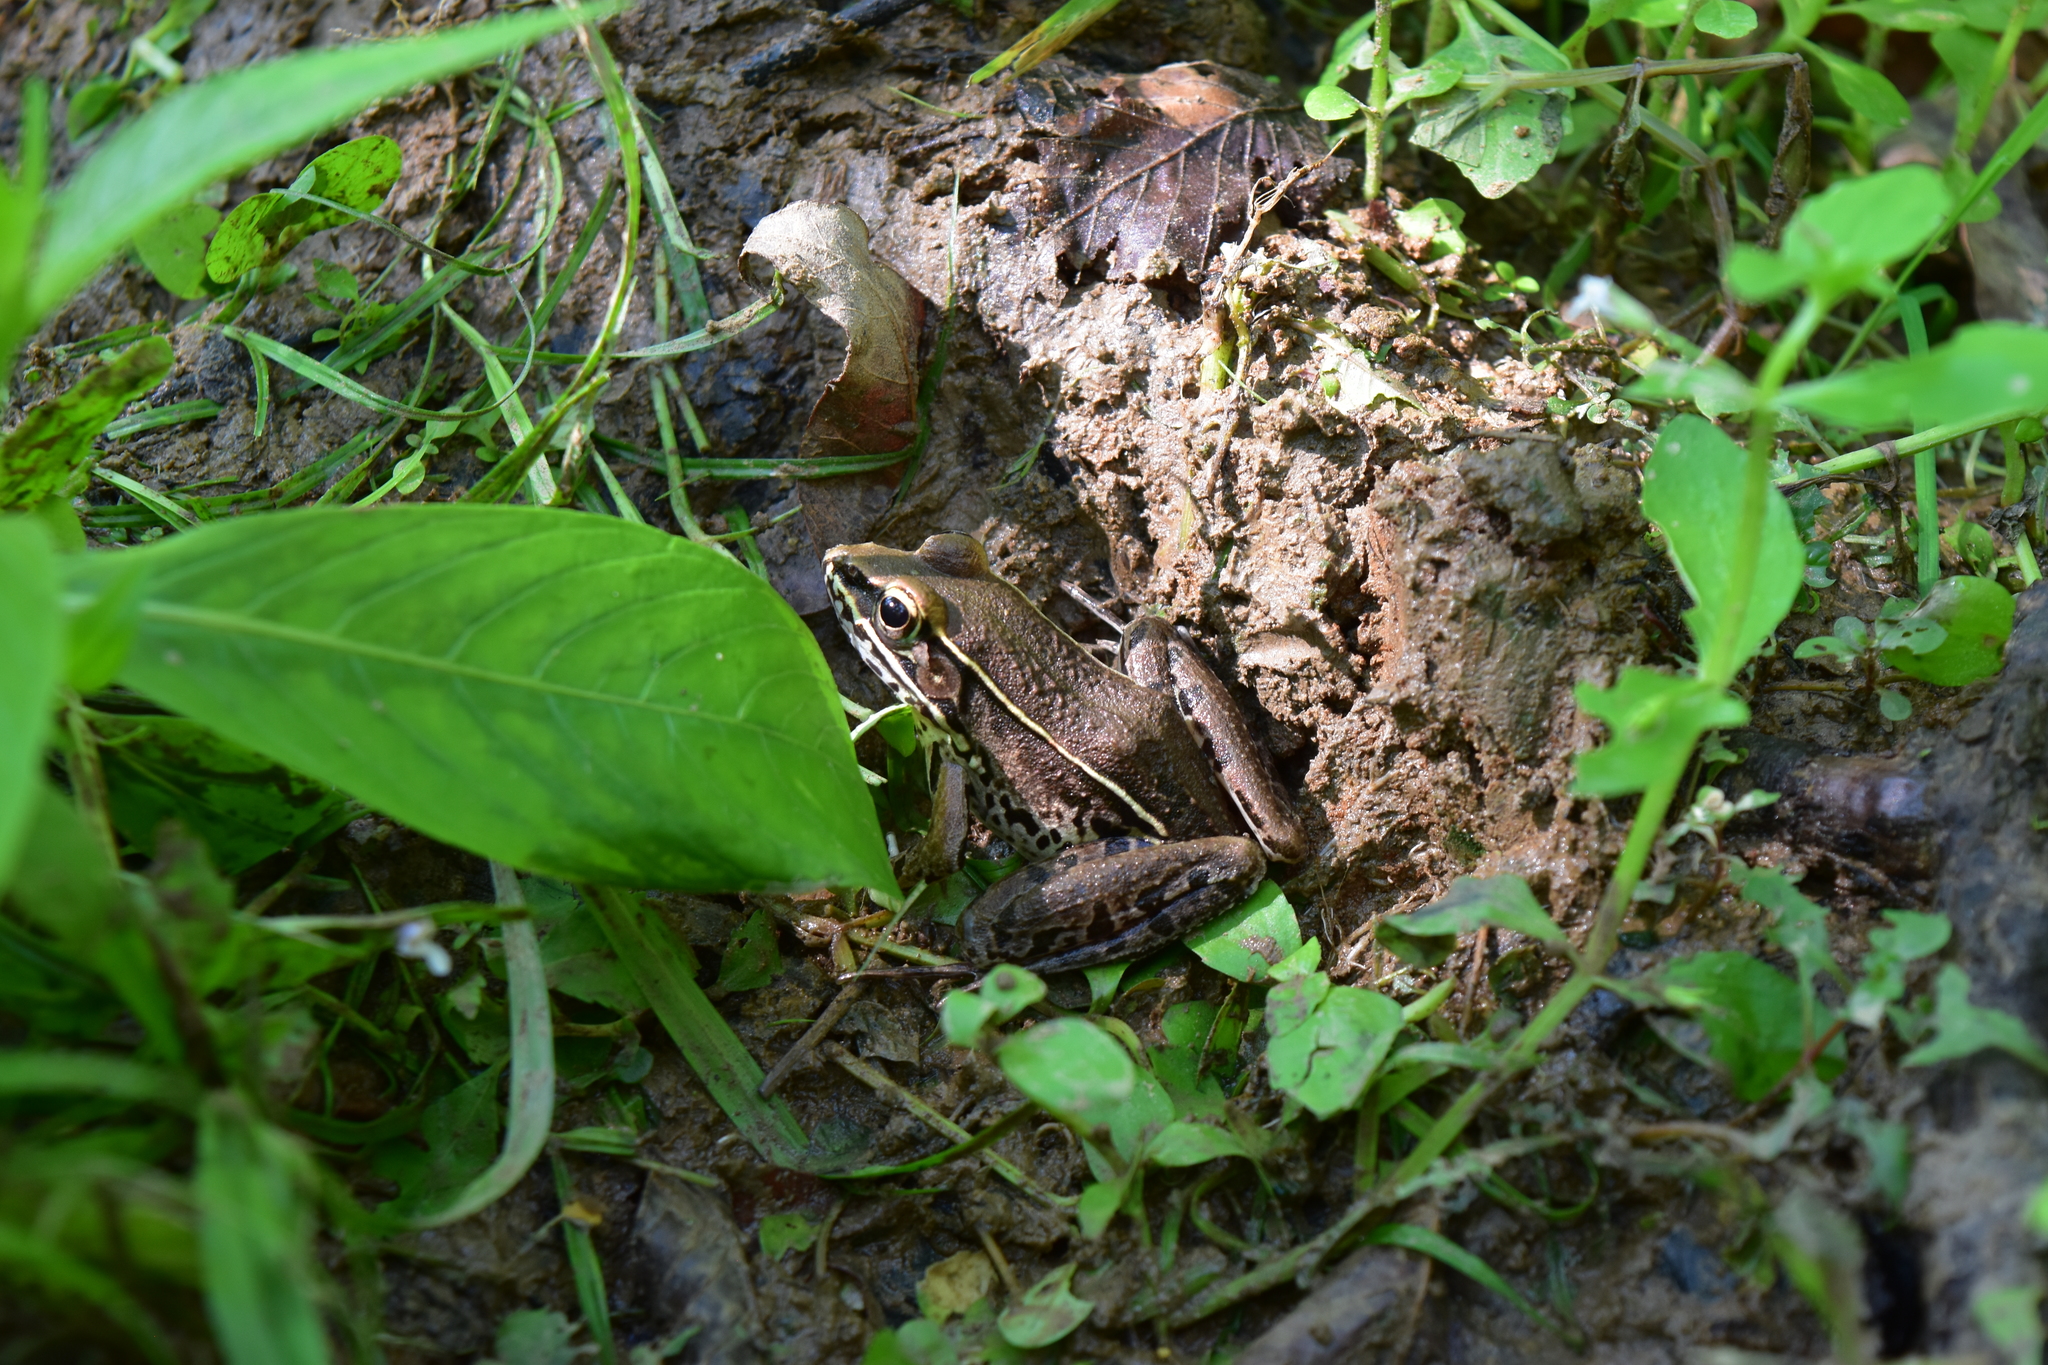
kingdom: Animalia
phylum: Chordata
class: Amphibia
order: Anura
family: Ranidae
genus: Lithobates
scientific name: Lithobates sphenocephalus
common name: Southern leopard frog
